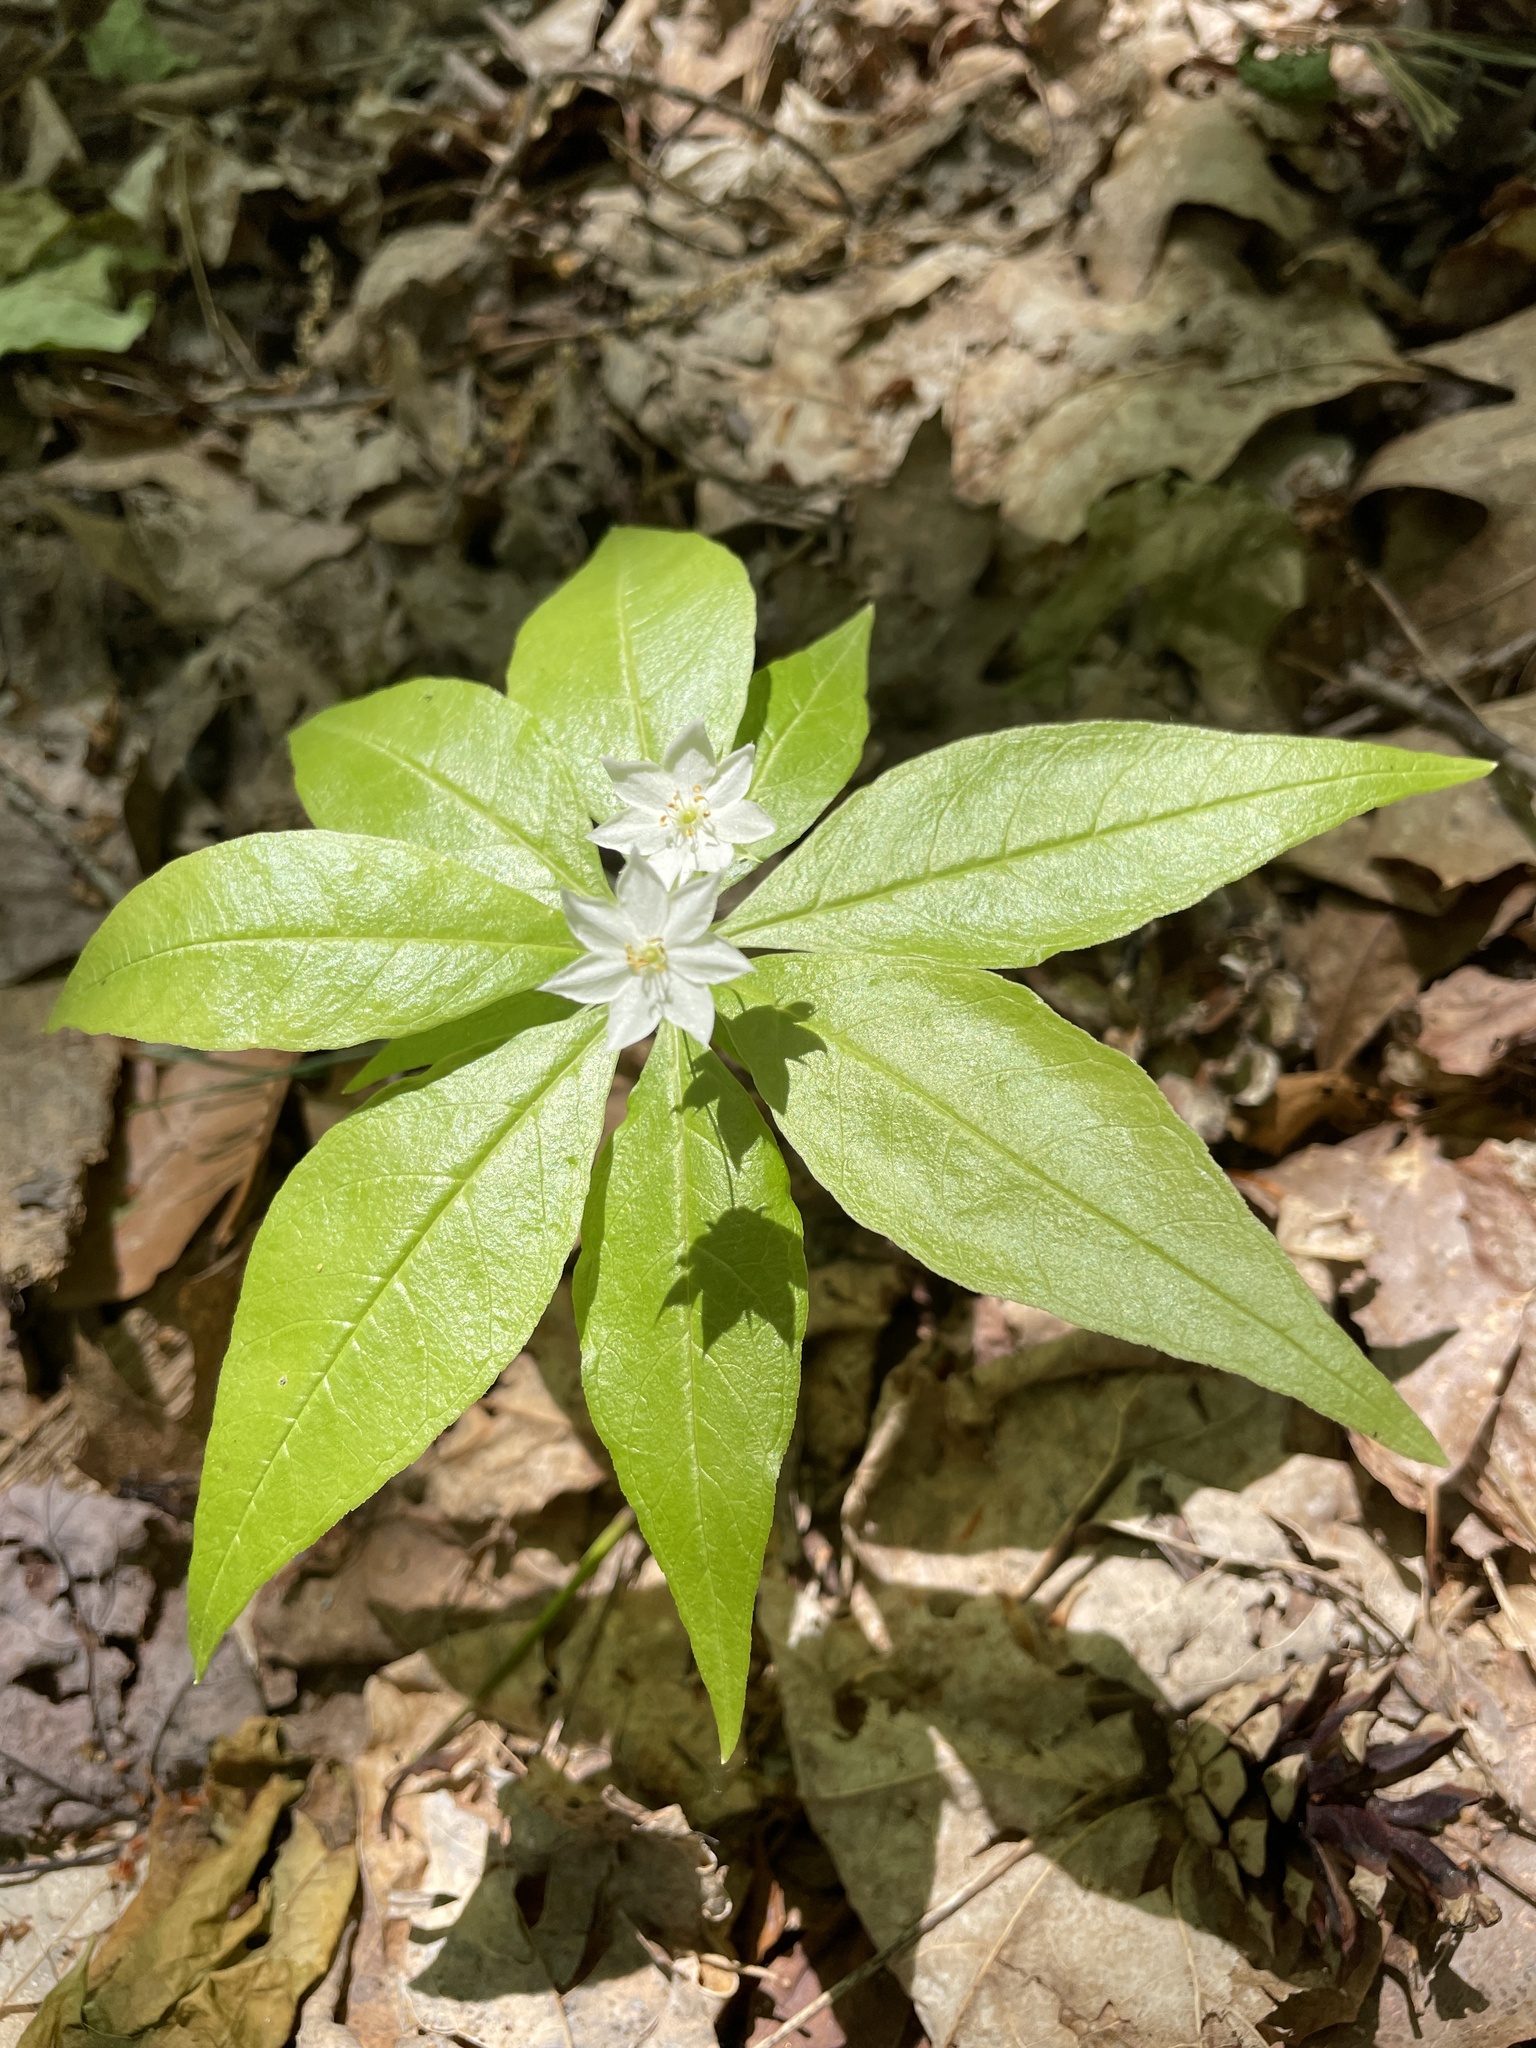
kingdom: Plantae
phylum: Tracheophyta
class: Magnoliopsida
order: Ericales
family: Primulaceae
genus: Lysimachia
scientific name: Lysimachia borealis
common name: American starflower
